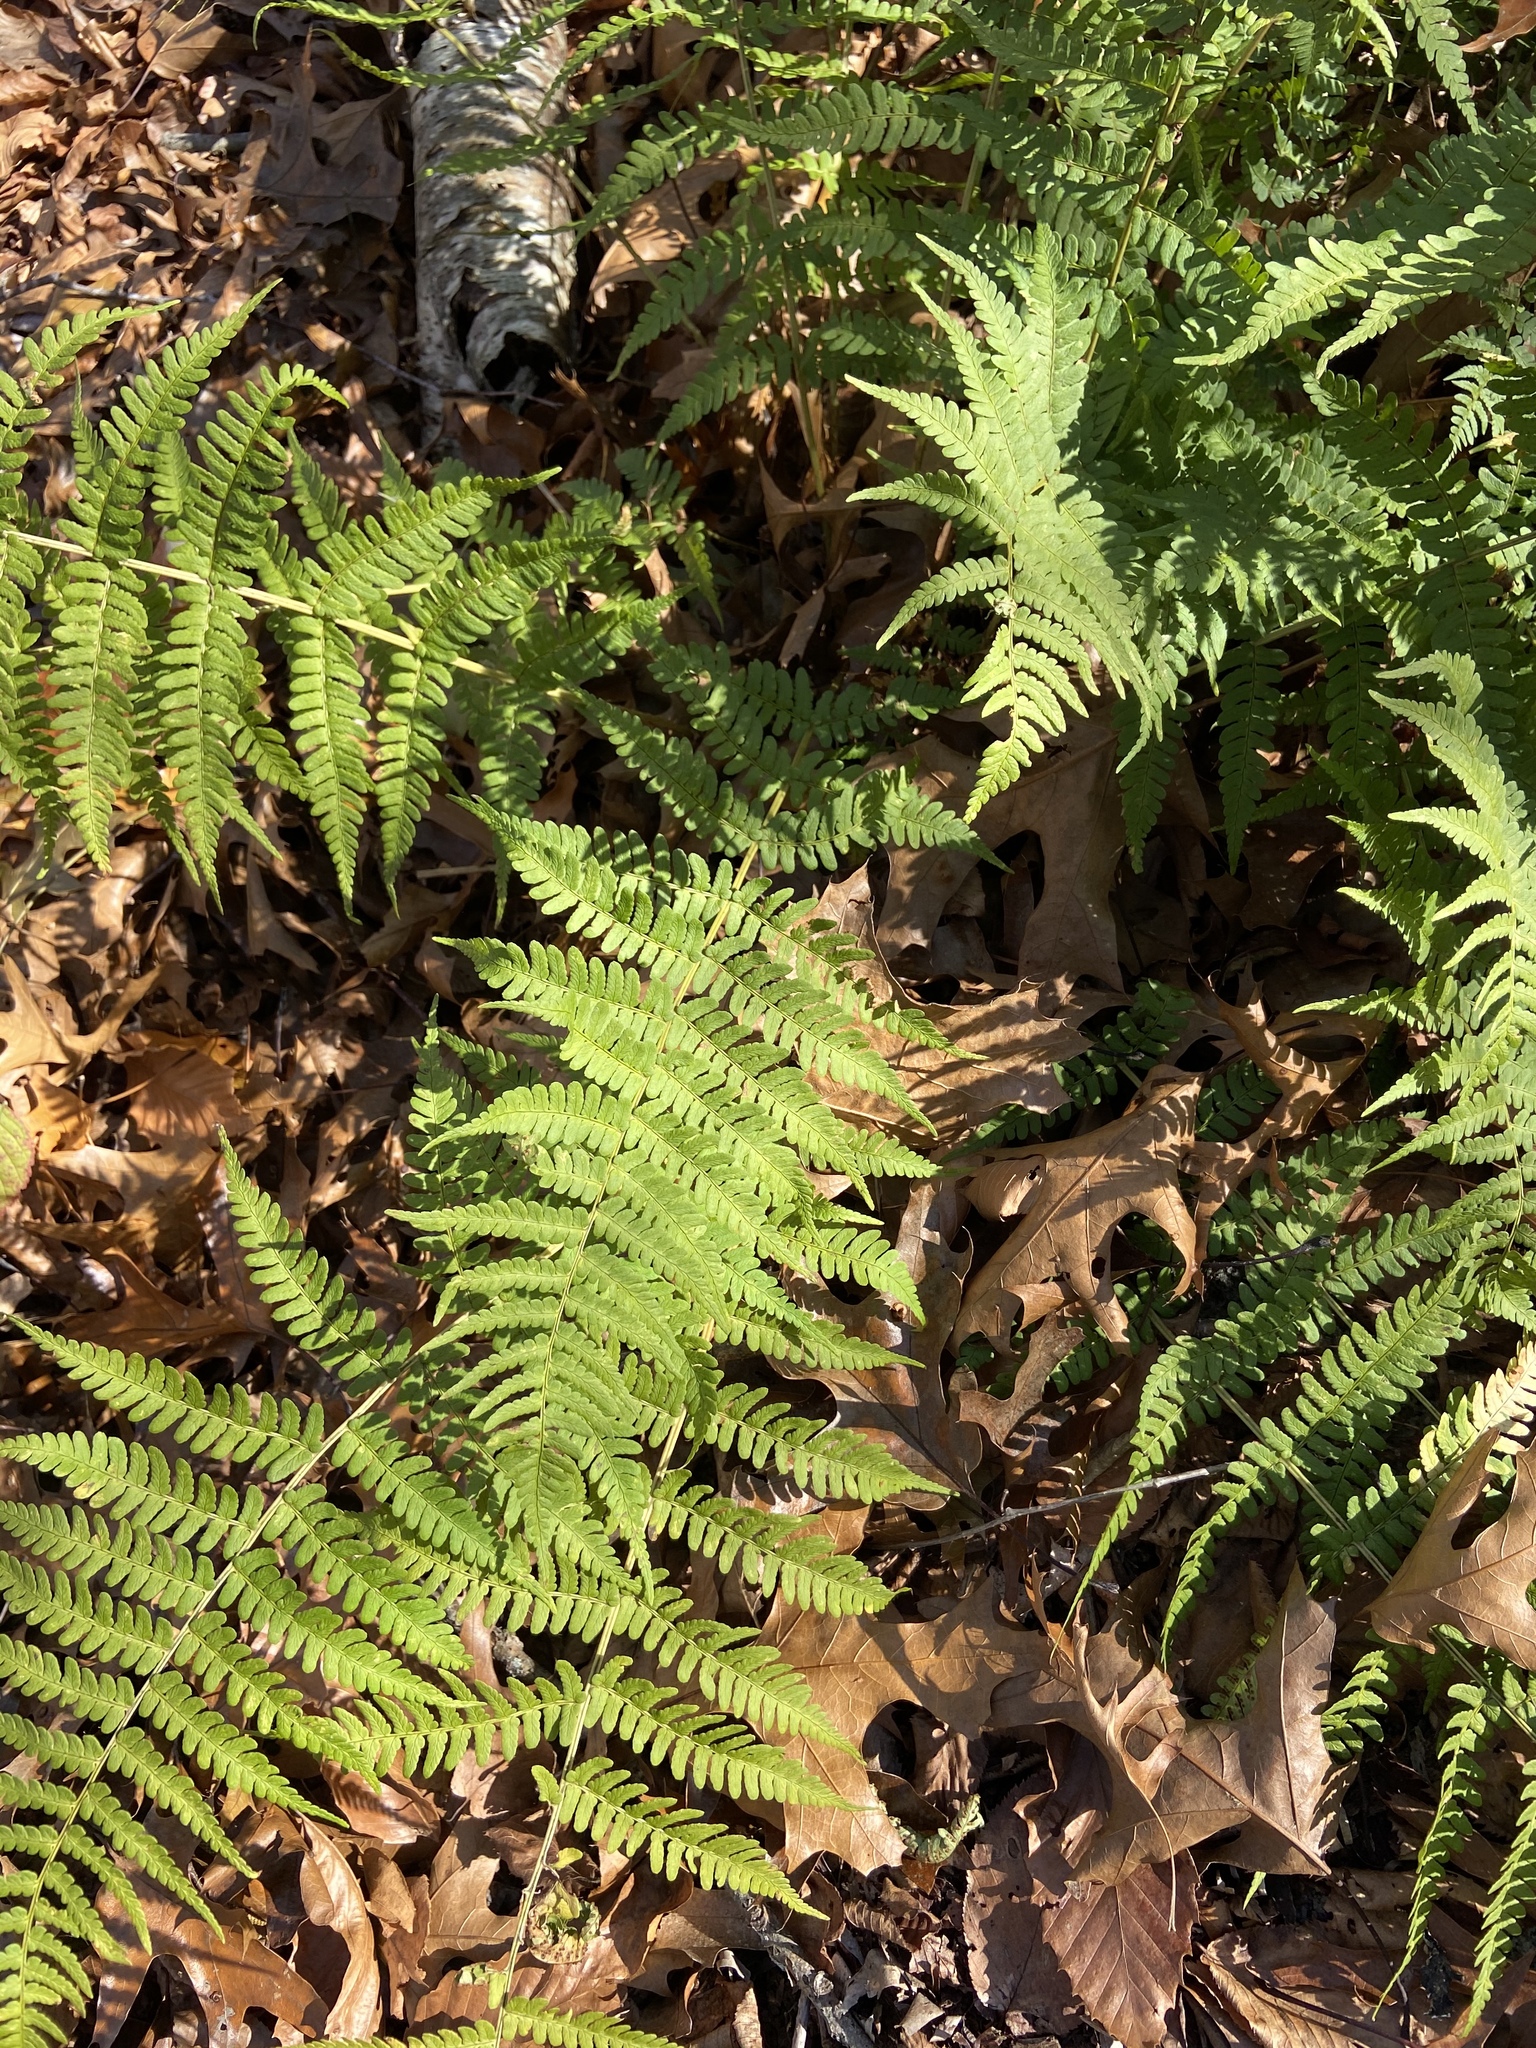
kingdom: Plantae
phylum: Tracheophyta
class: Polypodiopsida
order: Polypodiales
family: Dryopteridaceae
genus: Dryopteris
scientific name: Dryopteris marginalis
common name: Marginal wood fern
